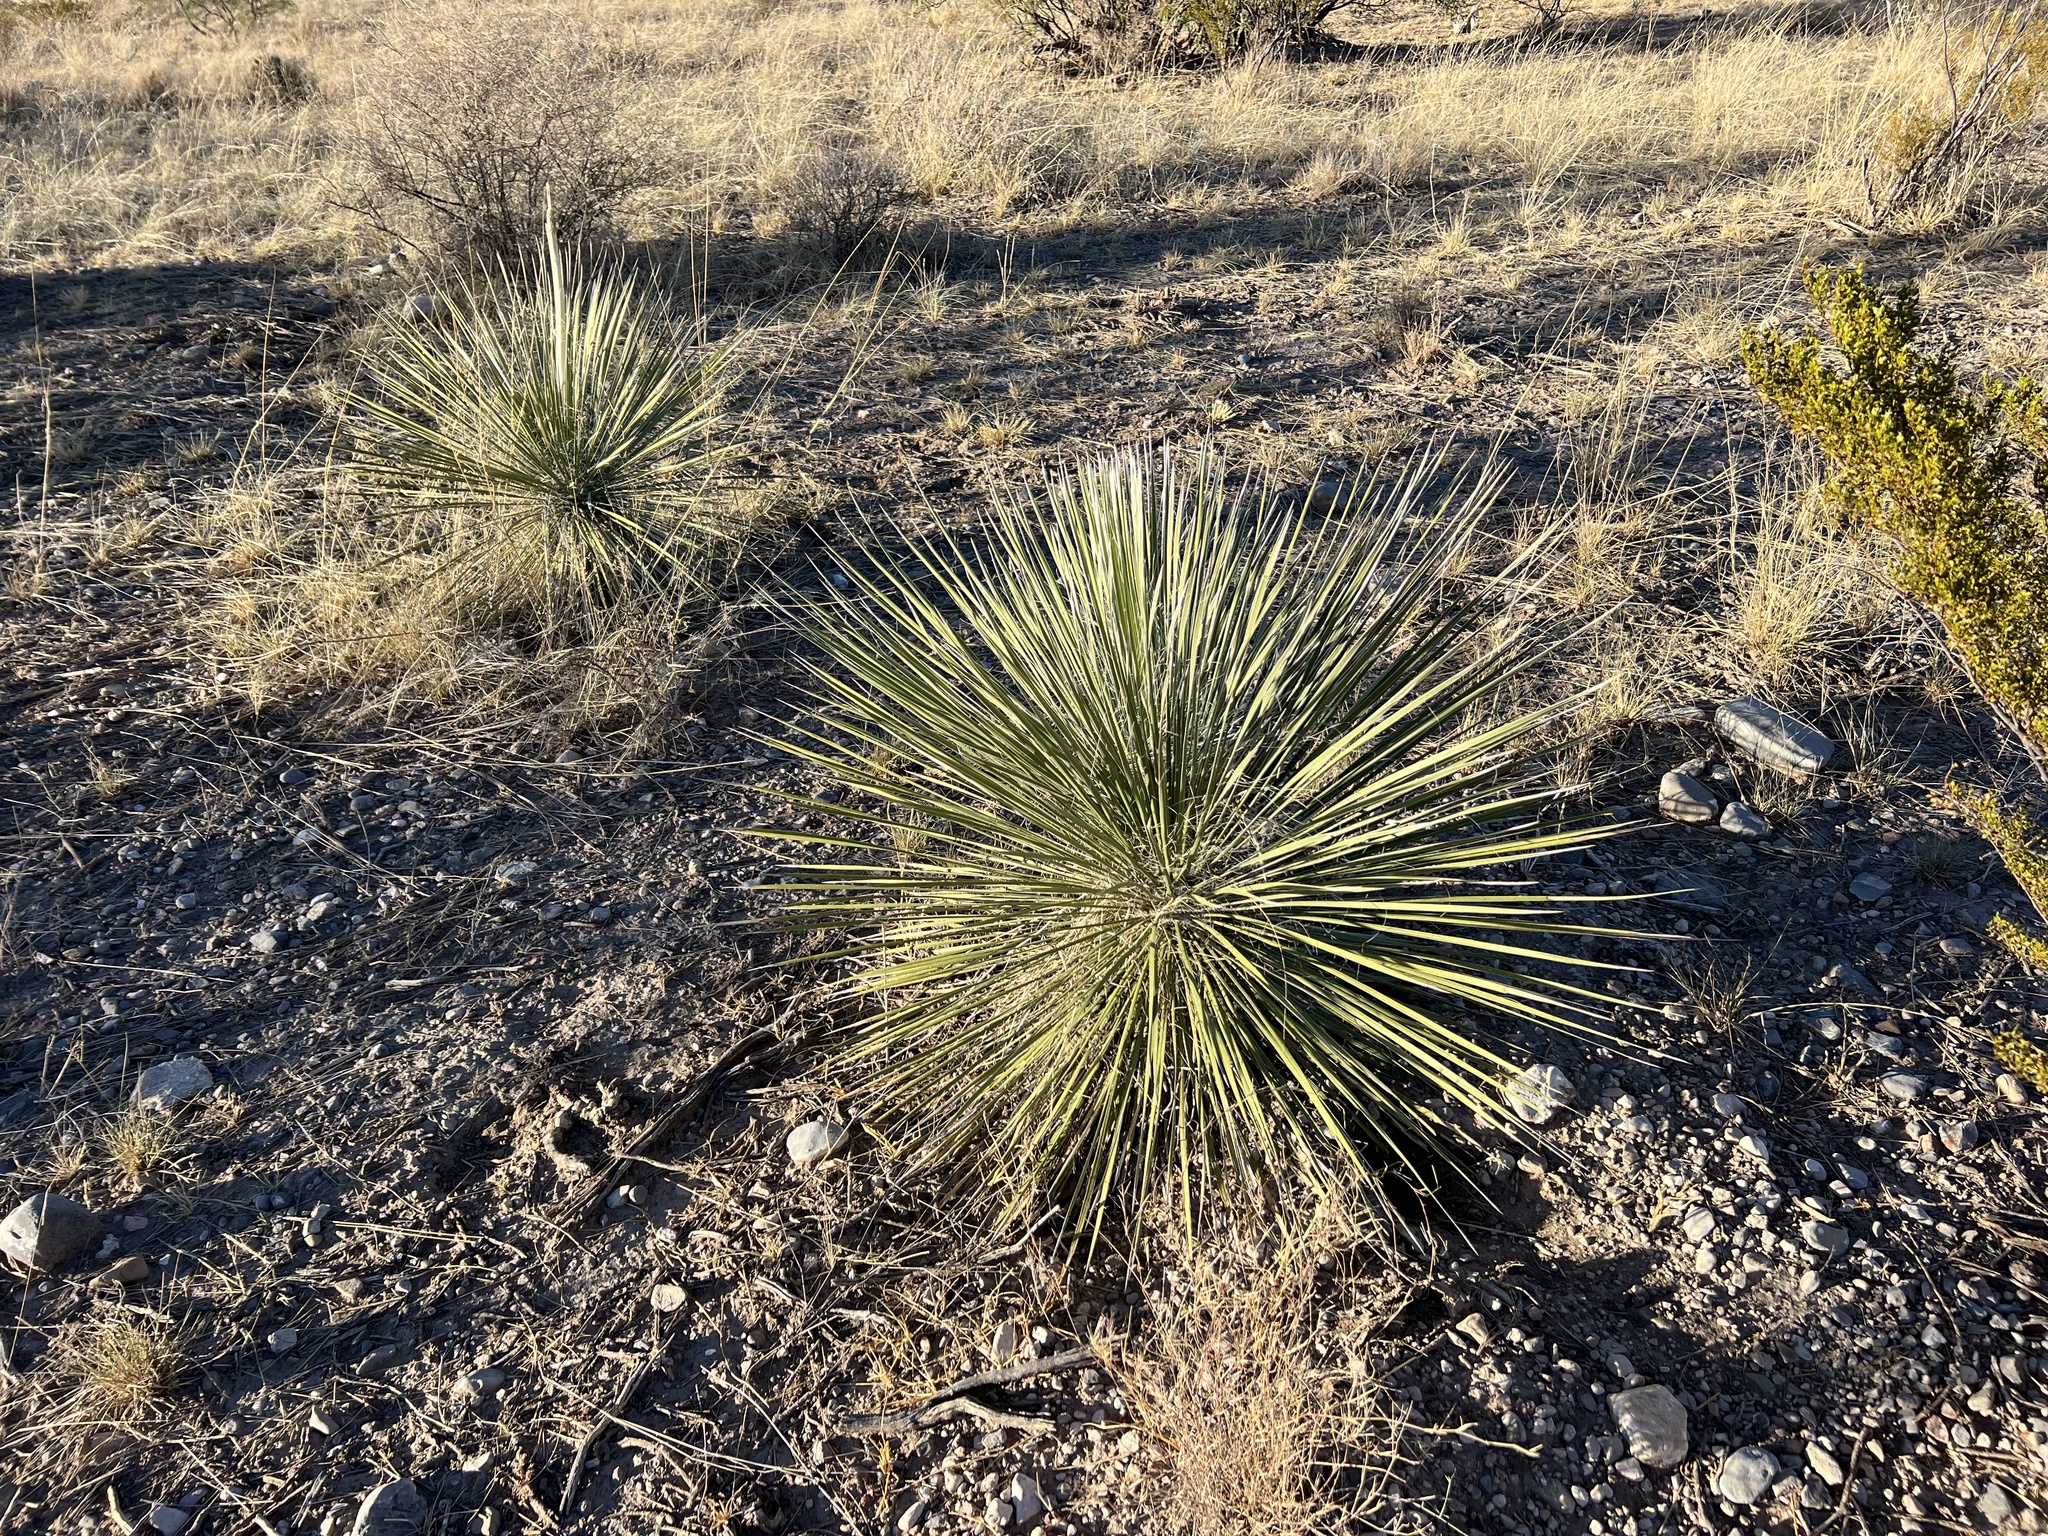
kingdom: Plantae
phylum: Tracheophyta
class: Liliopsida
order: Asparagales
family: Asparagaceae
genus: Yucca
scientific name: Yucca elata
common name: Palmella
